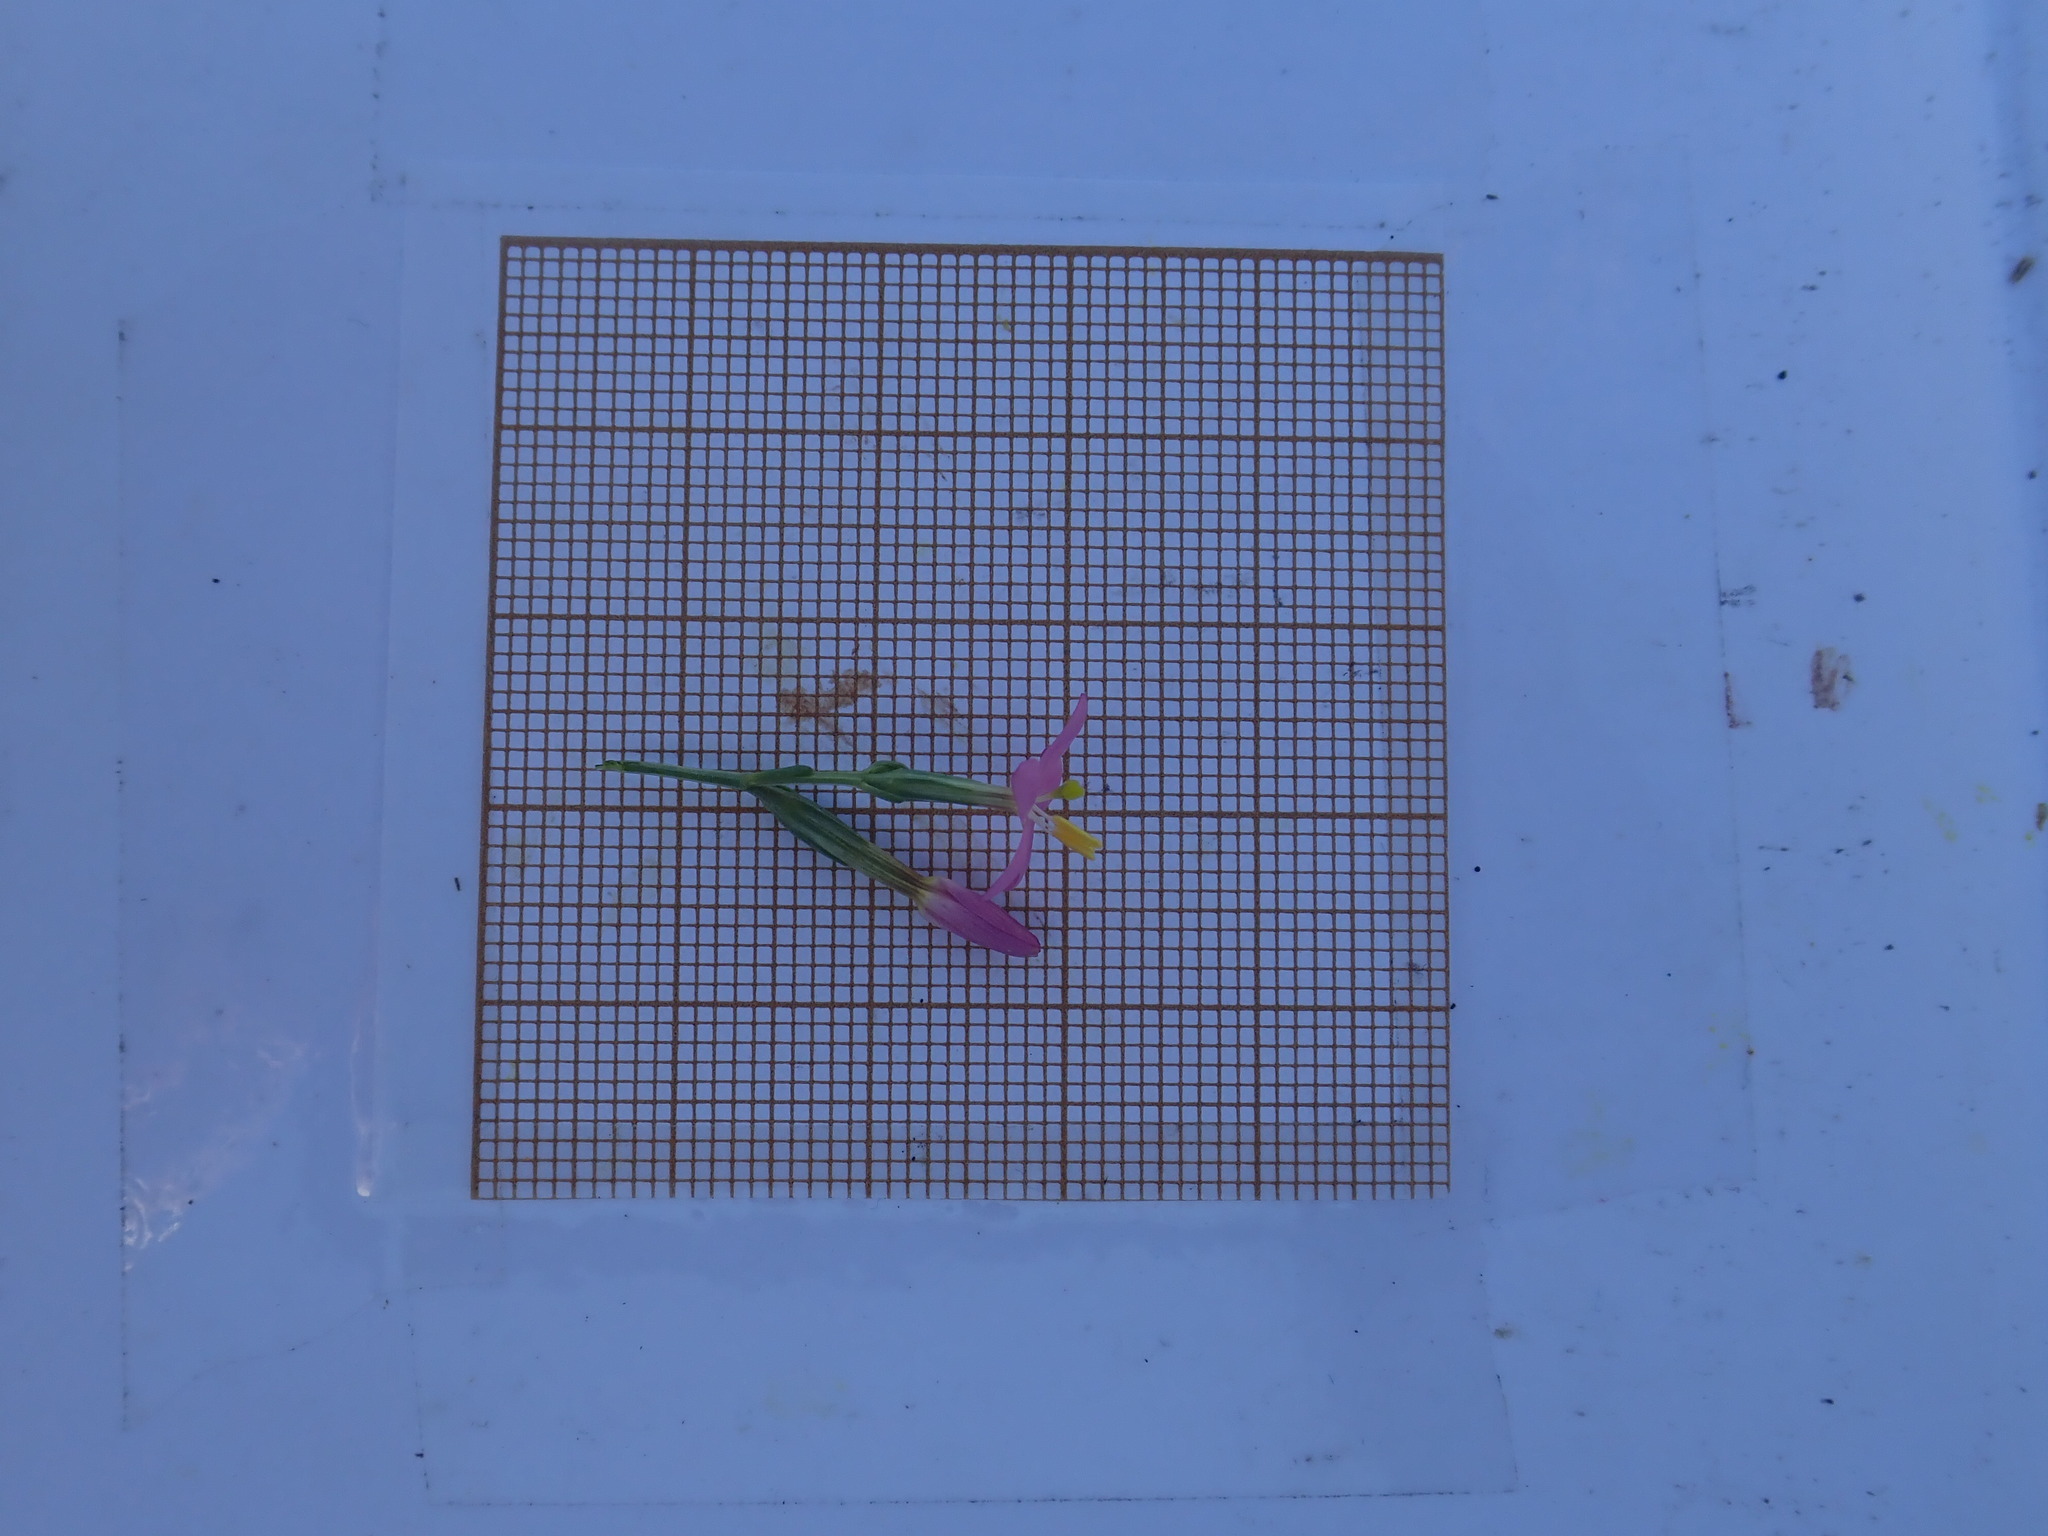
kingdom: Plantae
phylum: Tracheophyta
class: Magnoliopsida
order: Gentianales
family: Gentianaceae
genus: Centaurium
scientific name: Centaurium erythraea
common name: Common centaury
